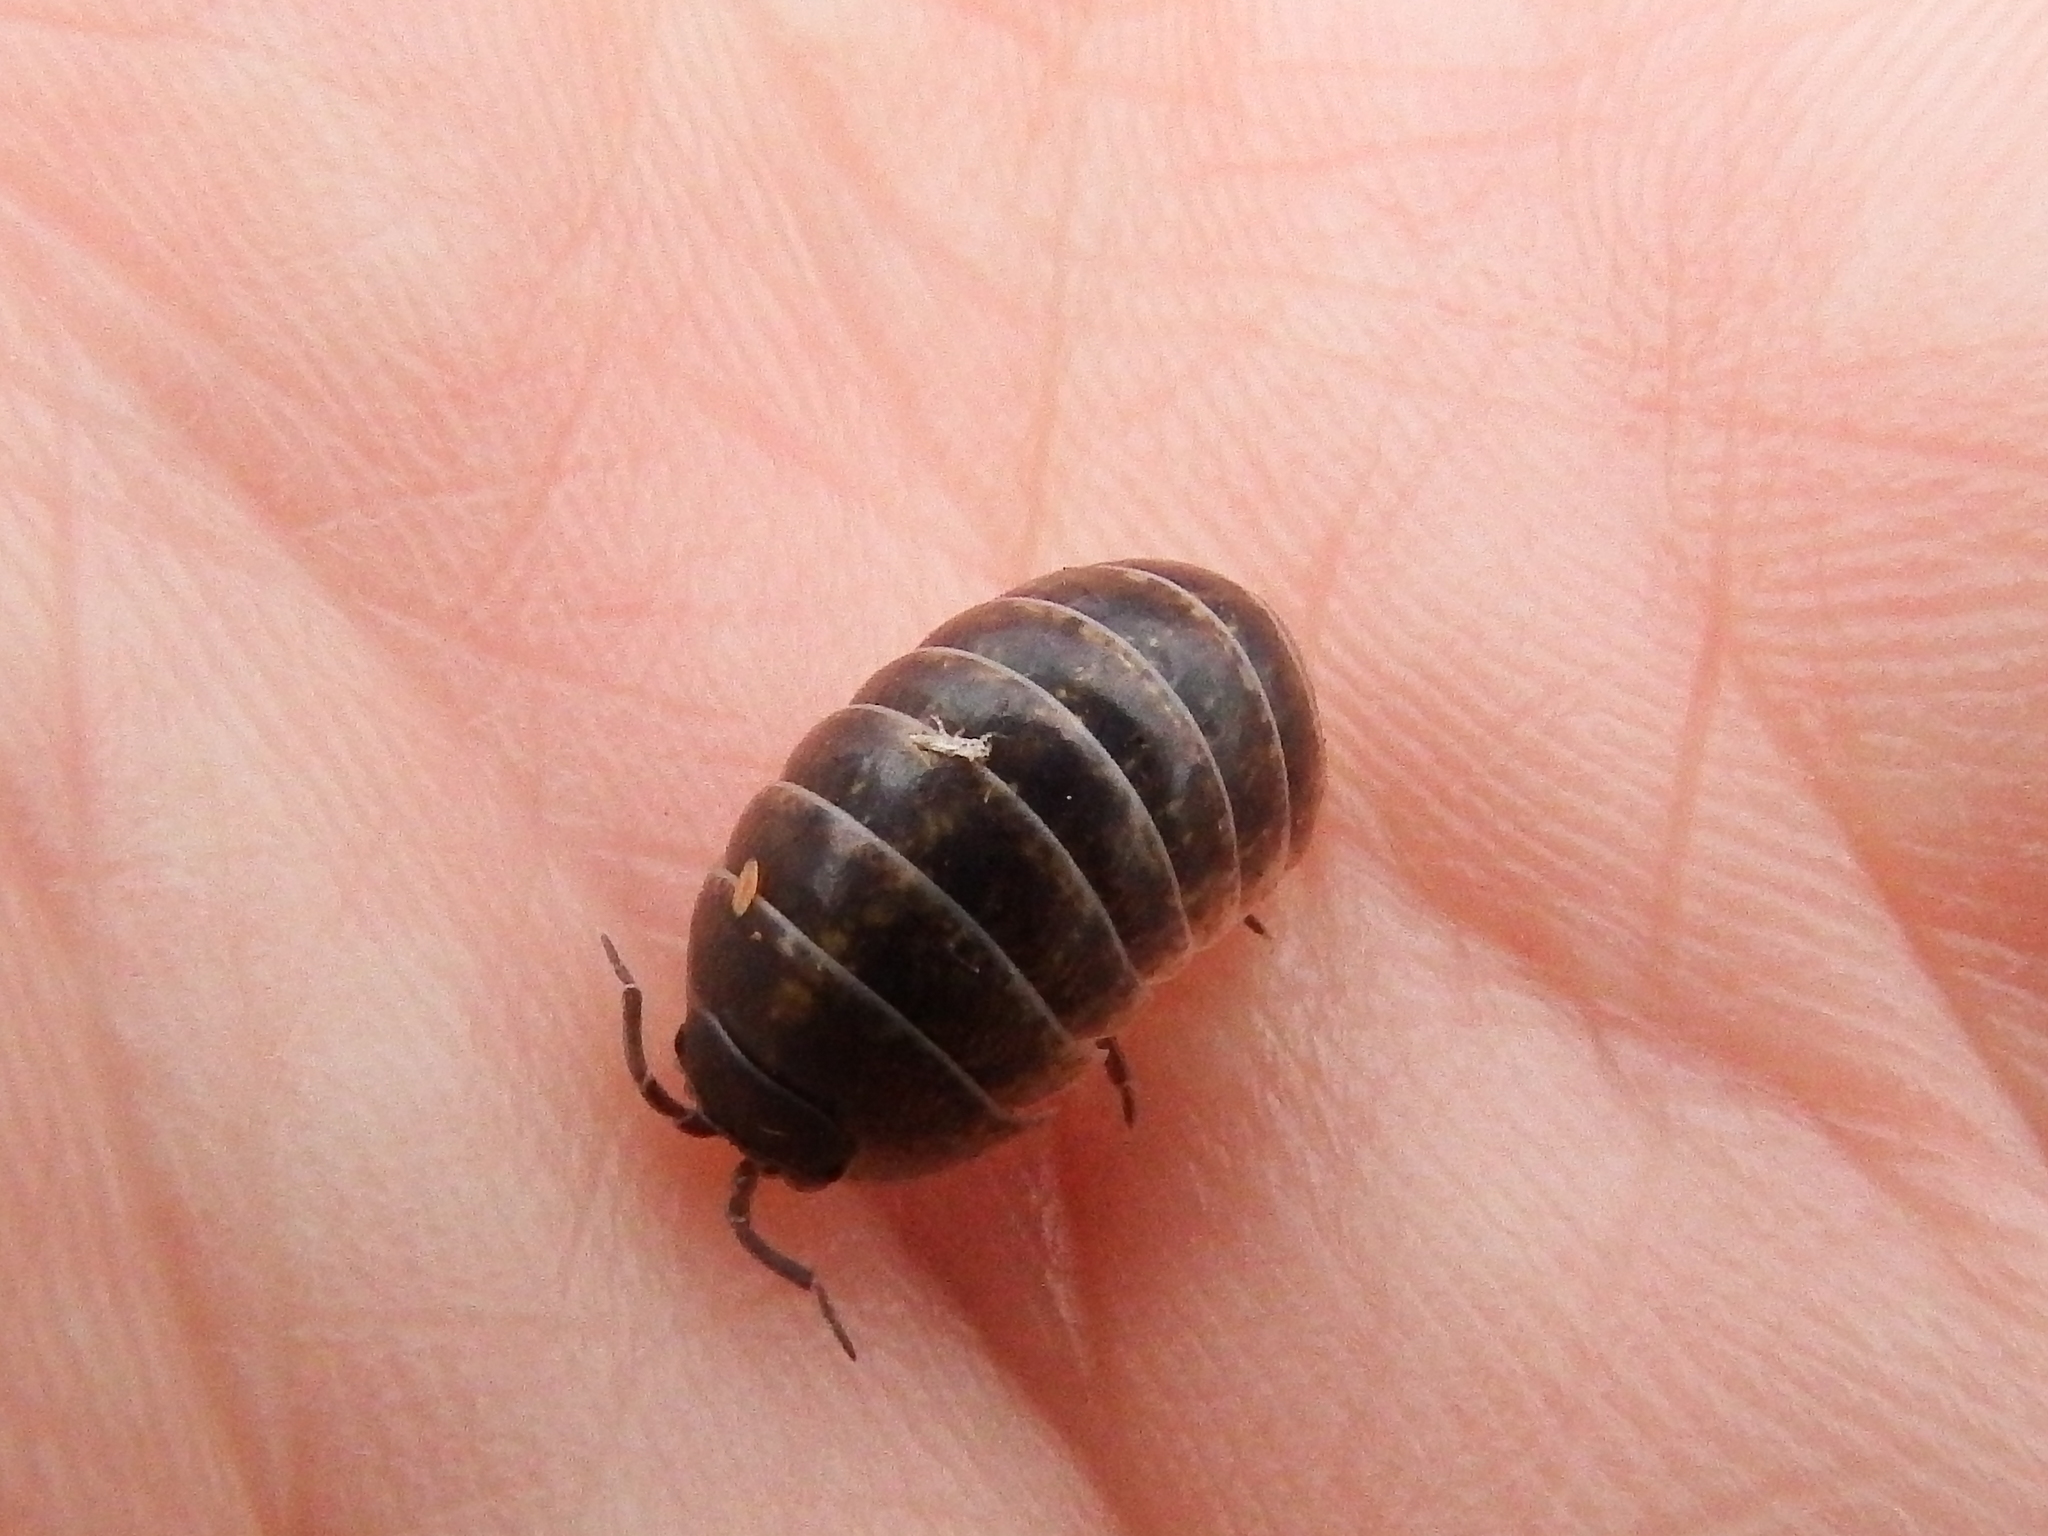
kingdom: Animalia
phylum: Arthropoda
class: Malacostraca
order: Isopoda
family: Armadillidiidae
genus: Armadillidium
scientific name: Armadillidium vulgare
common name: Common pill woodlouse
